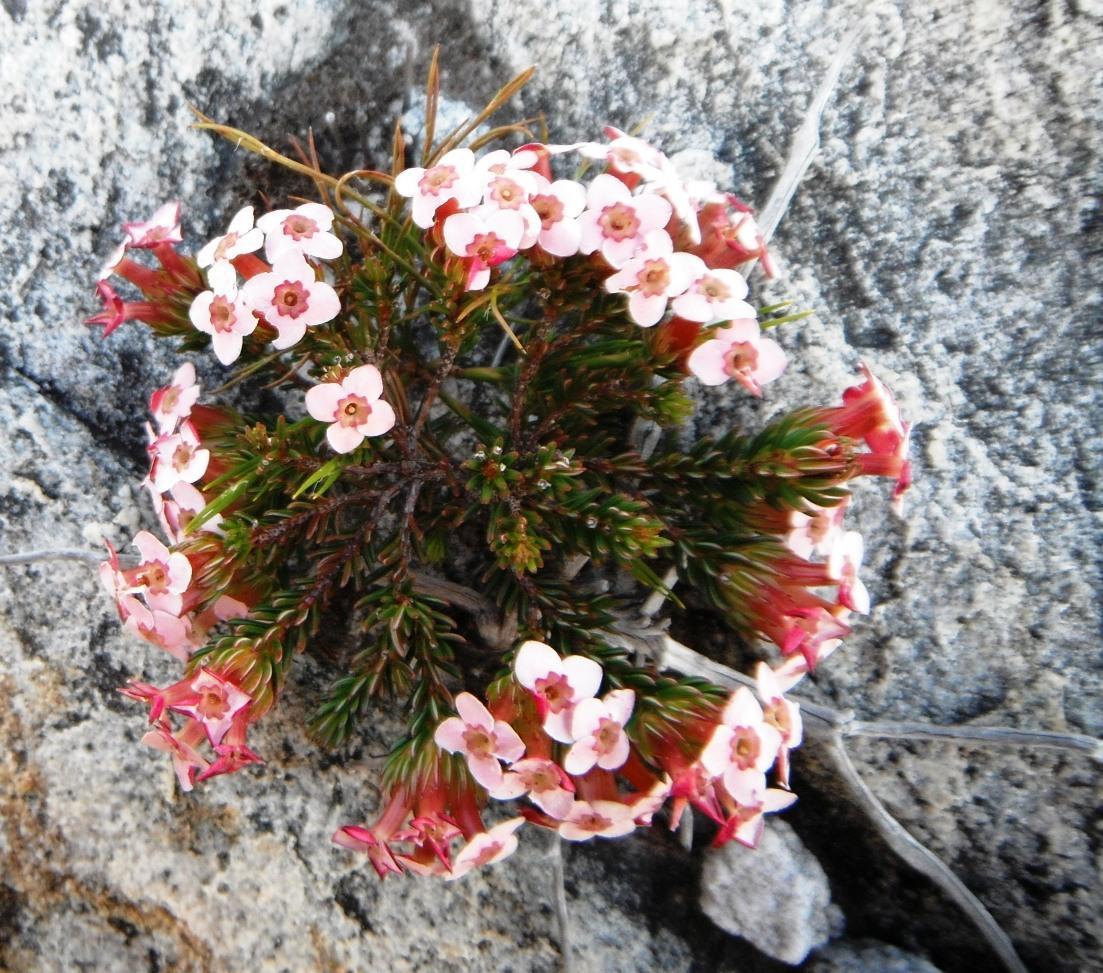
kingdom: Plantae
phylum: Tracheophyta
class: Magnoliopsida
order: Ericales
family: Ericaceae
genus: Erica
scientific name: Erica fastigiata
